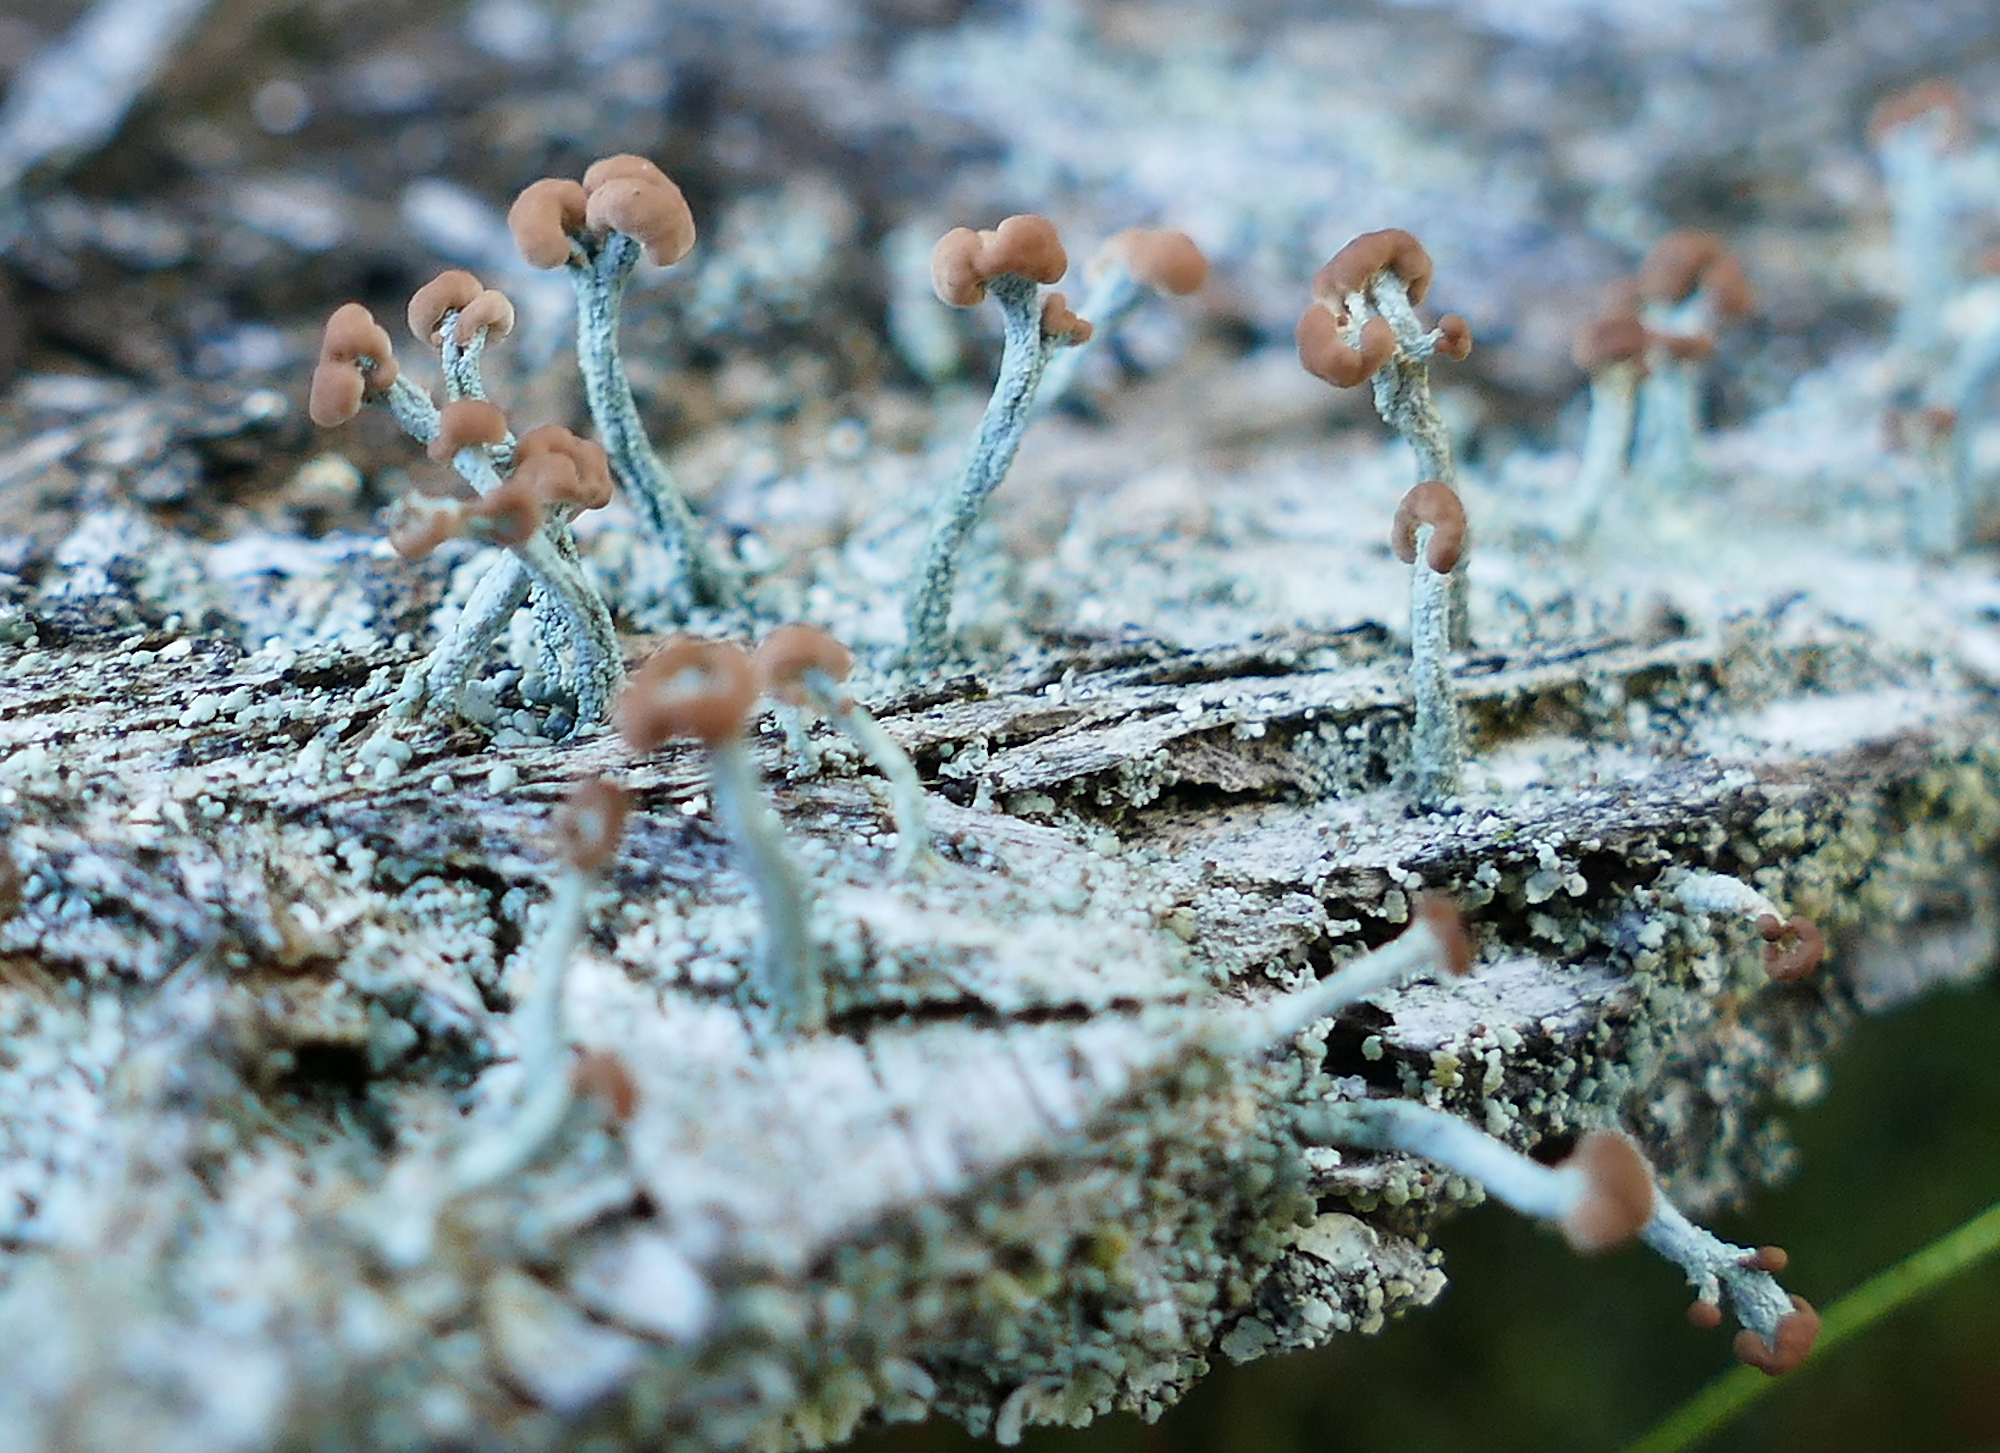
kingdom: Fungi
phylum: Ascomycota
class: Lecanoromycetes
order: Lecanorales
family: Cladoniaceae
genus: Cladonia
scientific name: Cladonia peziziformis
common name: Cup lichen
